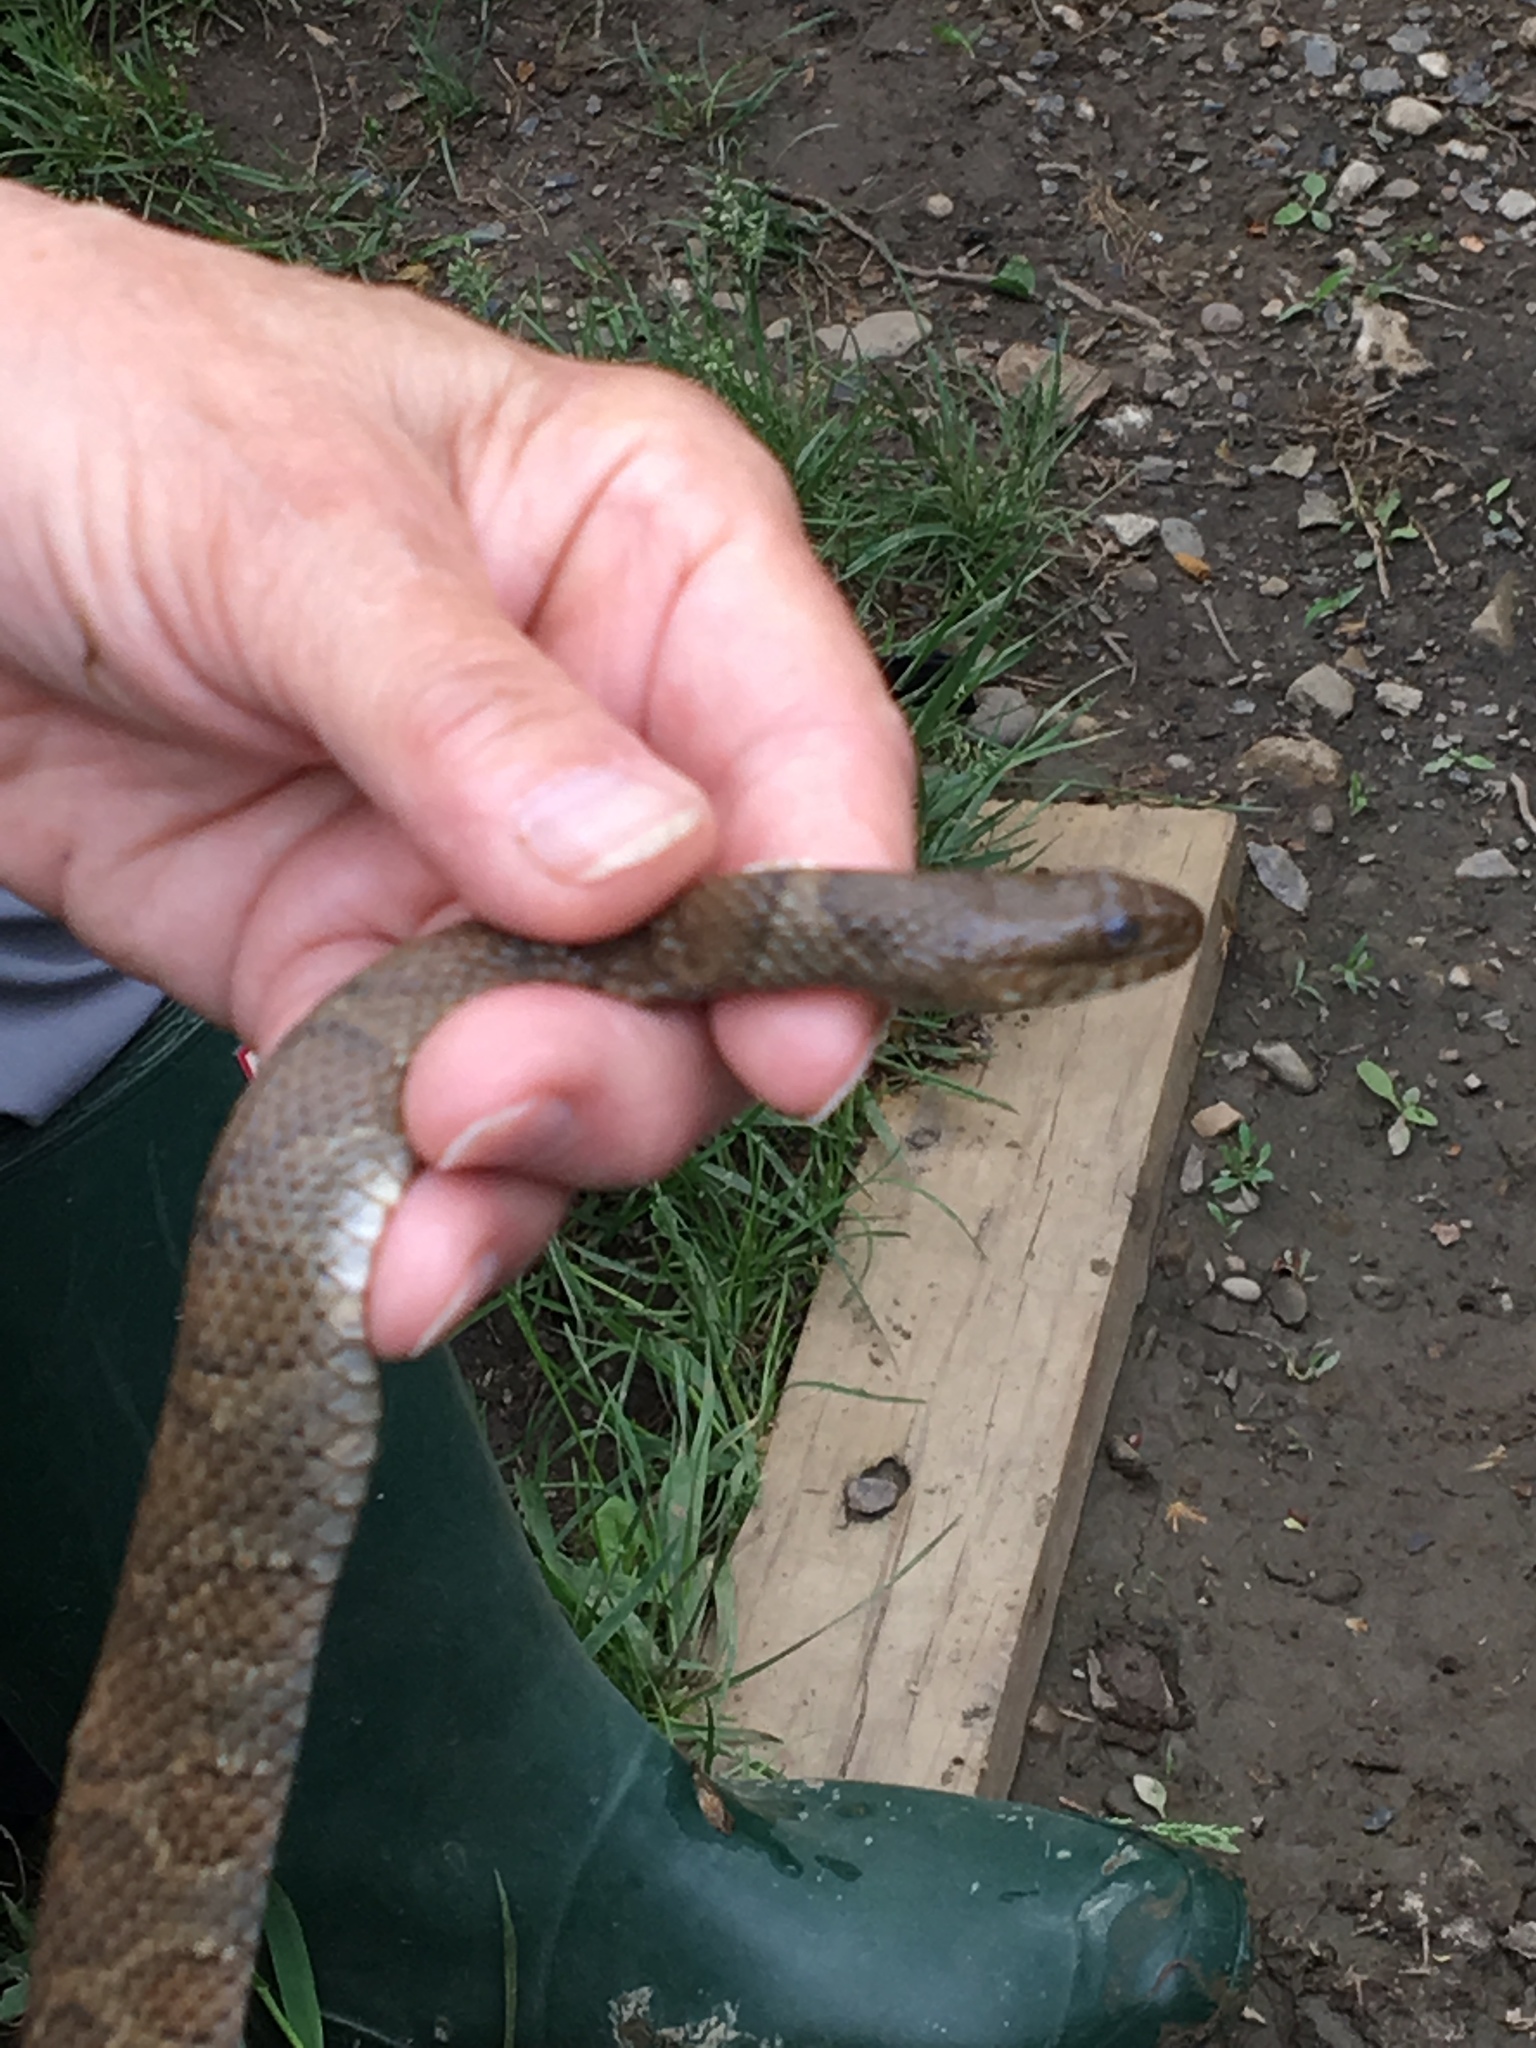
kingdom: Animalia
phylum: Chordata
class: Squamata
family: Colubridae
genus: Nerodia
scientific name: Nerodia sipedon
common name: Northern water snake
